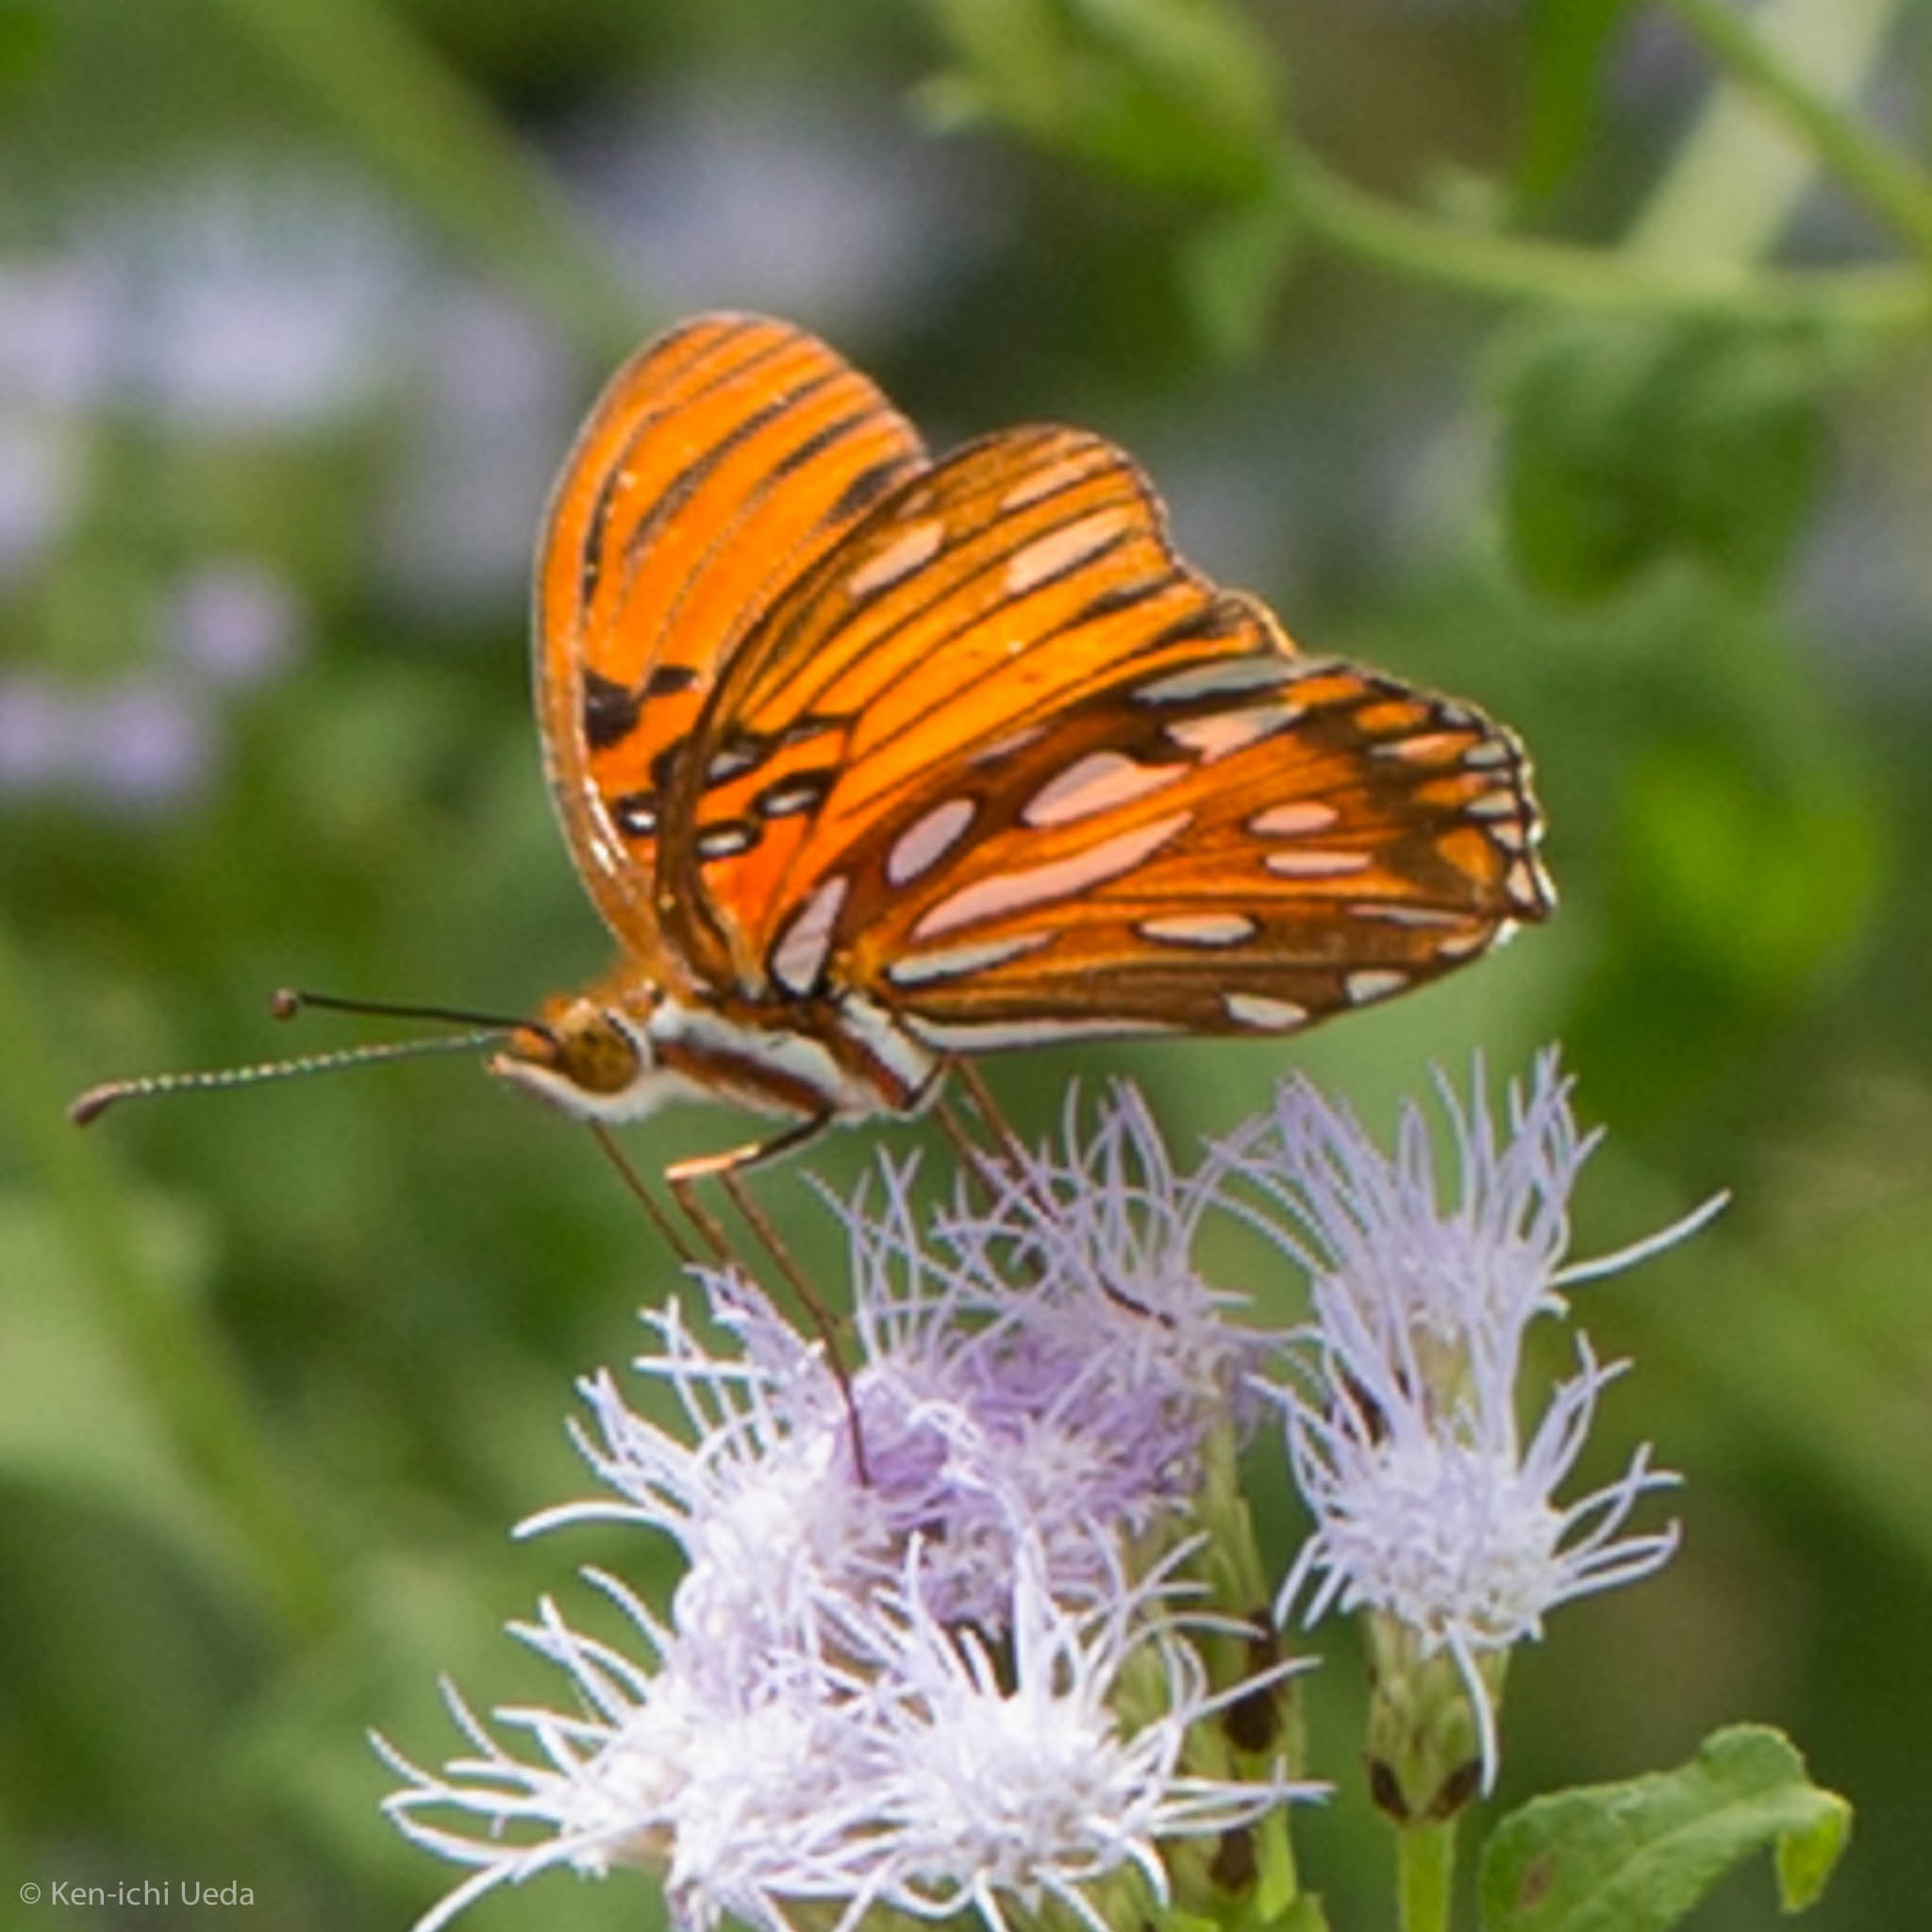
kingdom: Animalia
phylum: Arthropoda
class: Insecta
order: Lepidoptera
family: Nymphalidae
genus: Dione
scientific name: Dione vanillae
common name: Gulf fritillary
